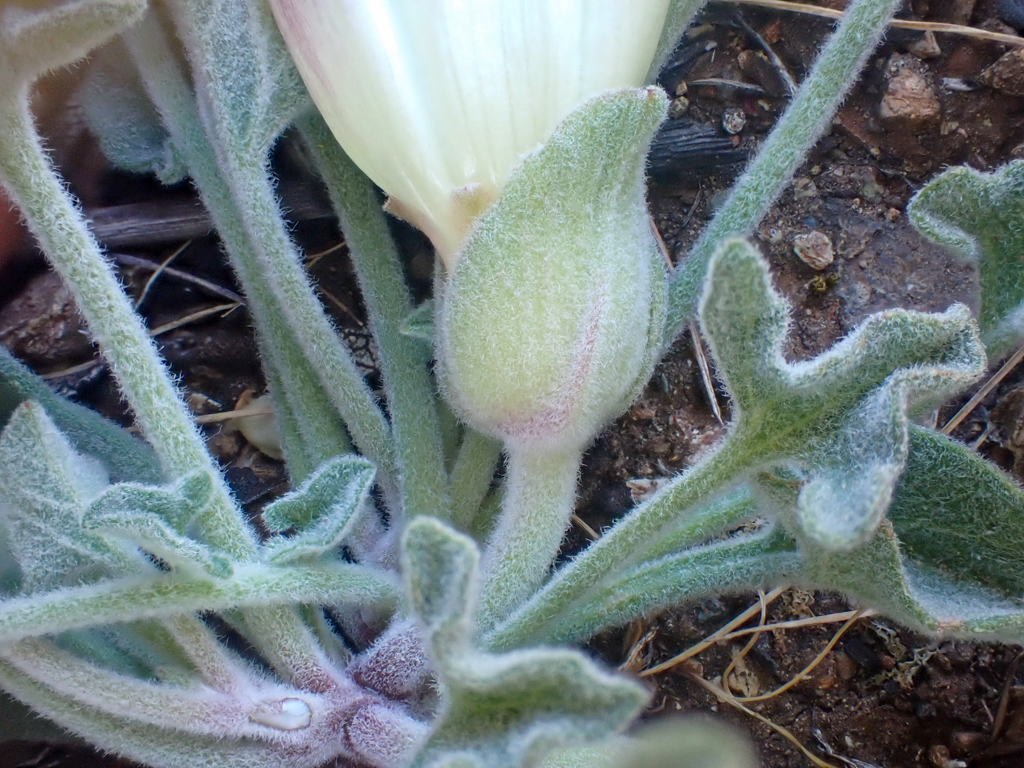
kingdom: Plantae
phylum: Tracheophyta
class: Magnoliopsida
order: Solanales
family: Convolvulaceae
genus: Calystegia
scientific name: Calystegia collina
